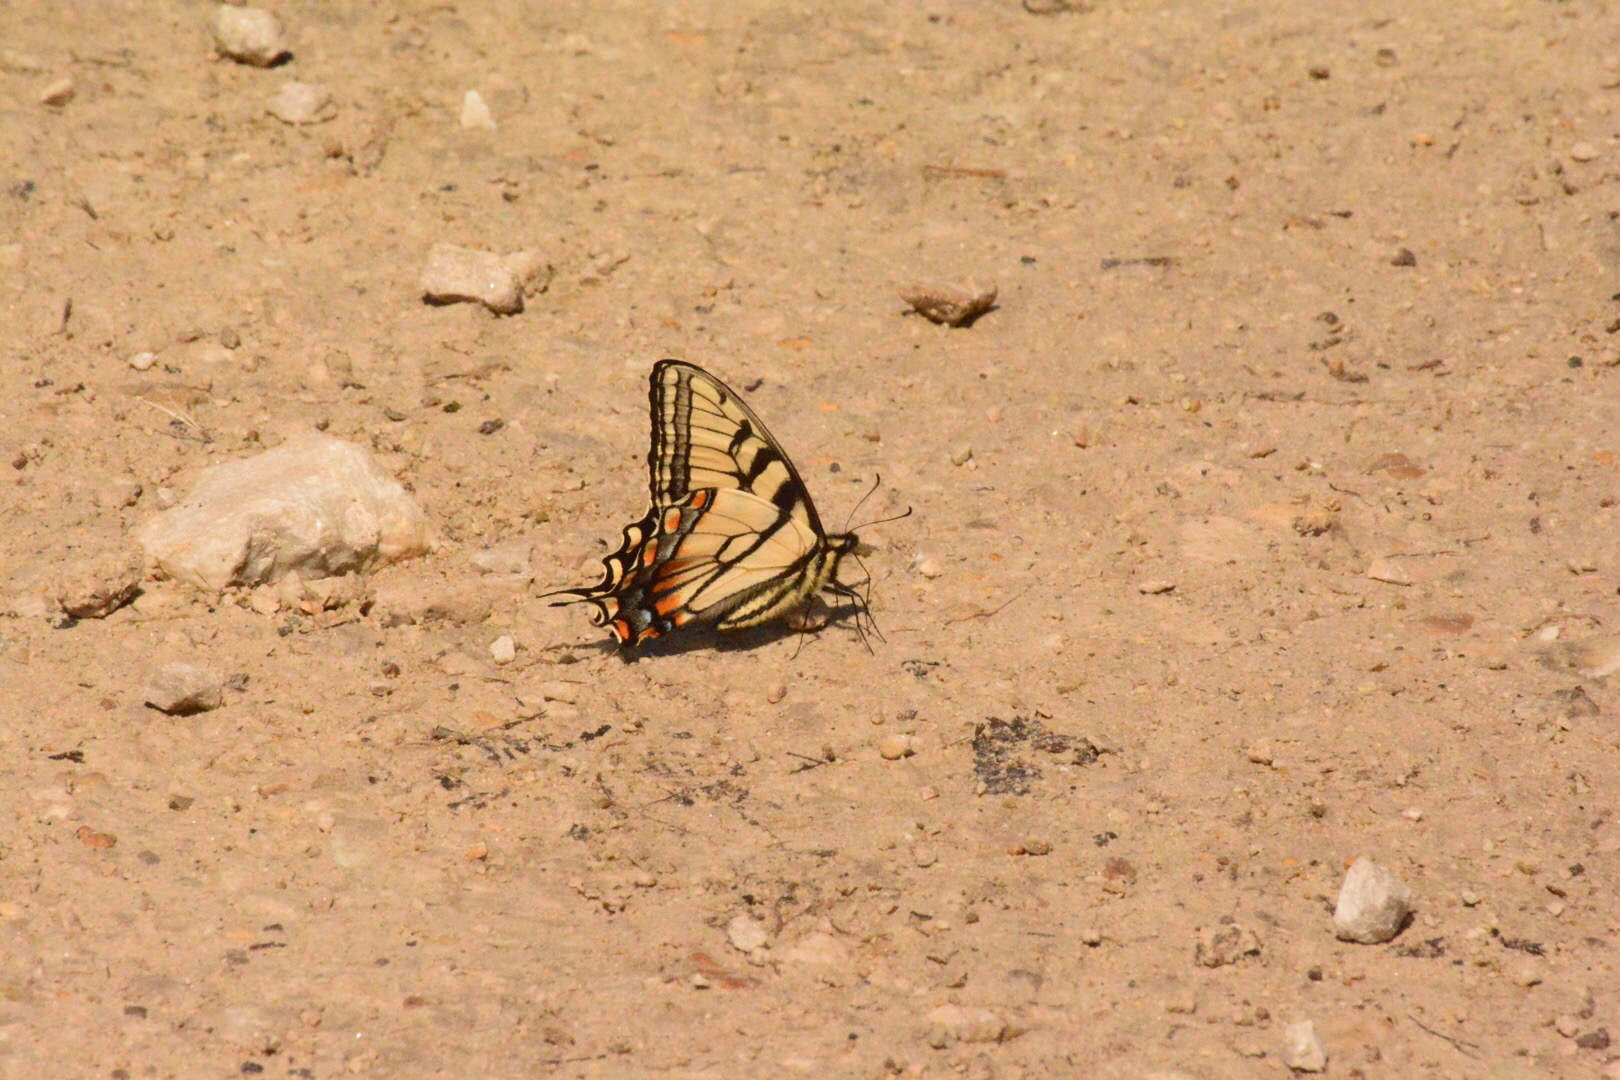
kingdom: Animalia
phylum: Arthropoda
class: Insecta
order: Lepidoptera
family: Papilionidae
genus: Papilio
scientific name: Papilio glaucus
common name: Tiger swallowtail
